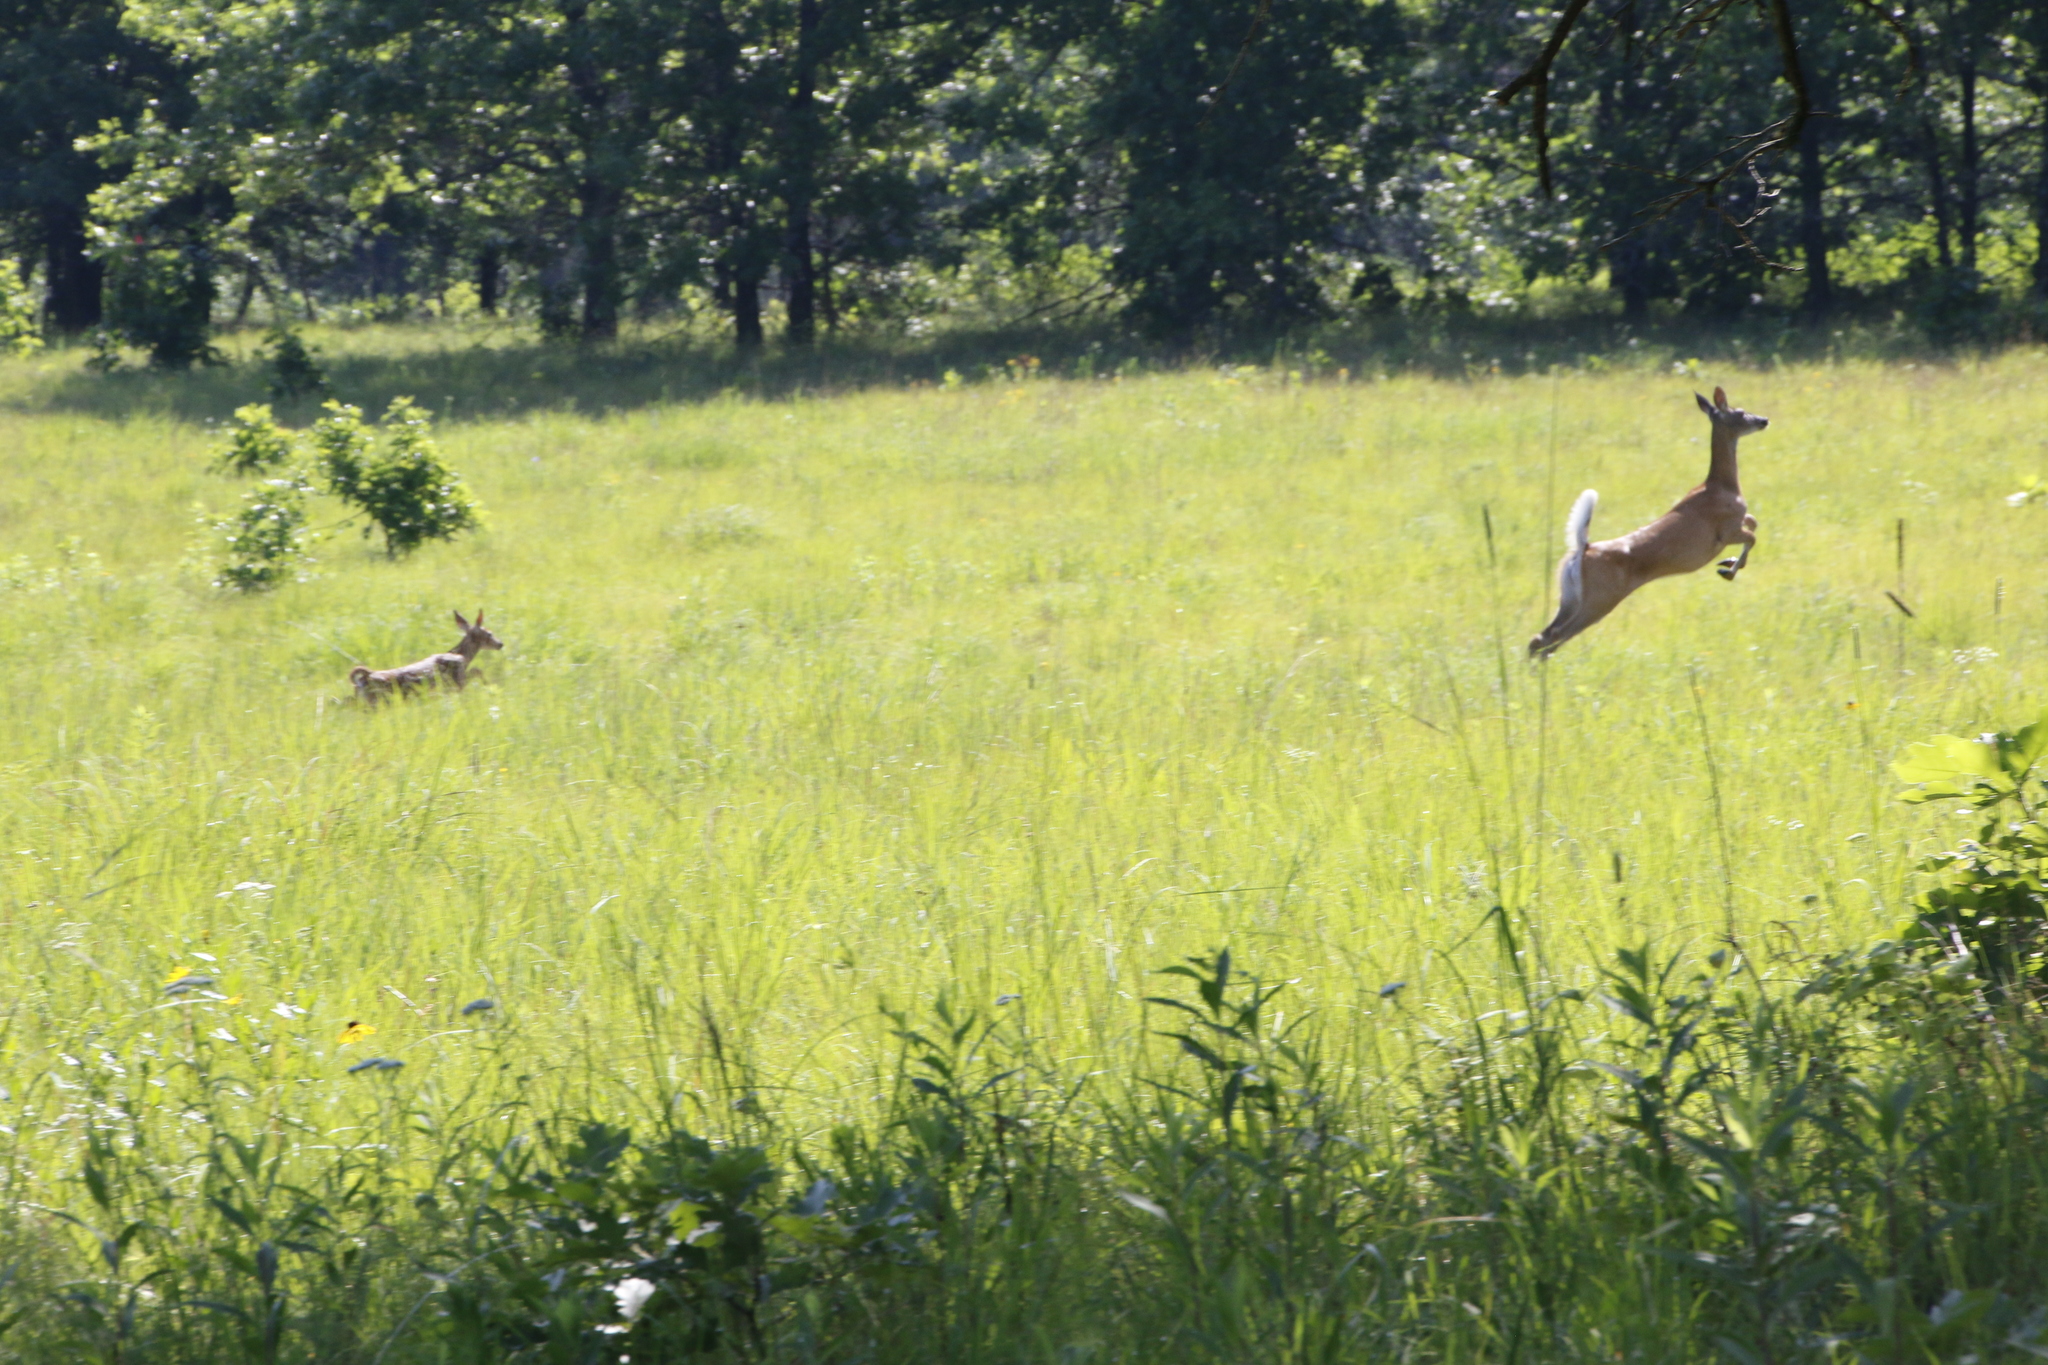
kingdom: Animalia
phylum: Chordata
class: Mammalia
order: Artiodactyla
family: Cervidae
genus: Odocoileus
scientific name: Odocoileus virginianus
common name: White-tailed deer
